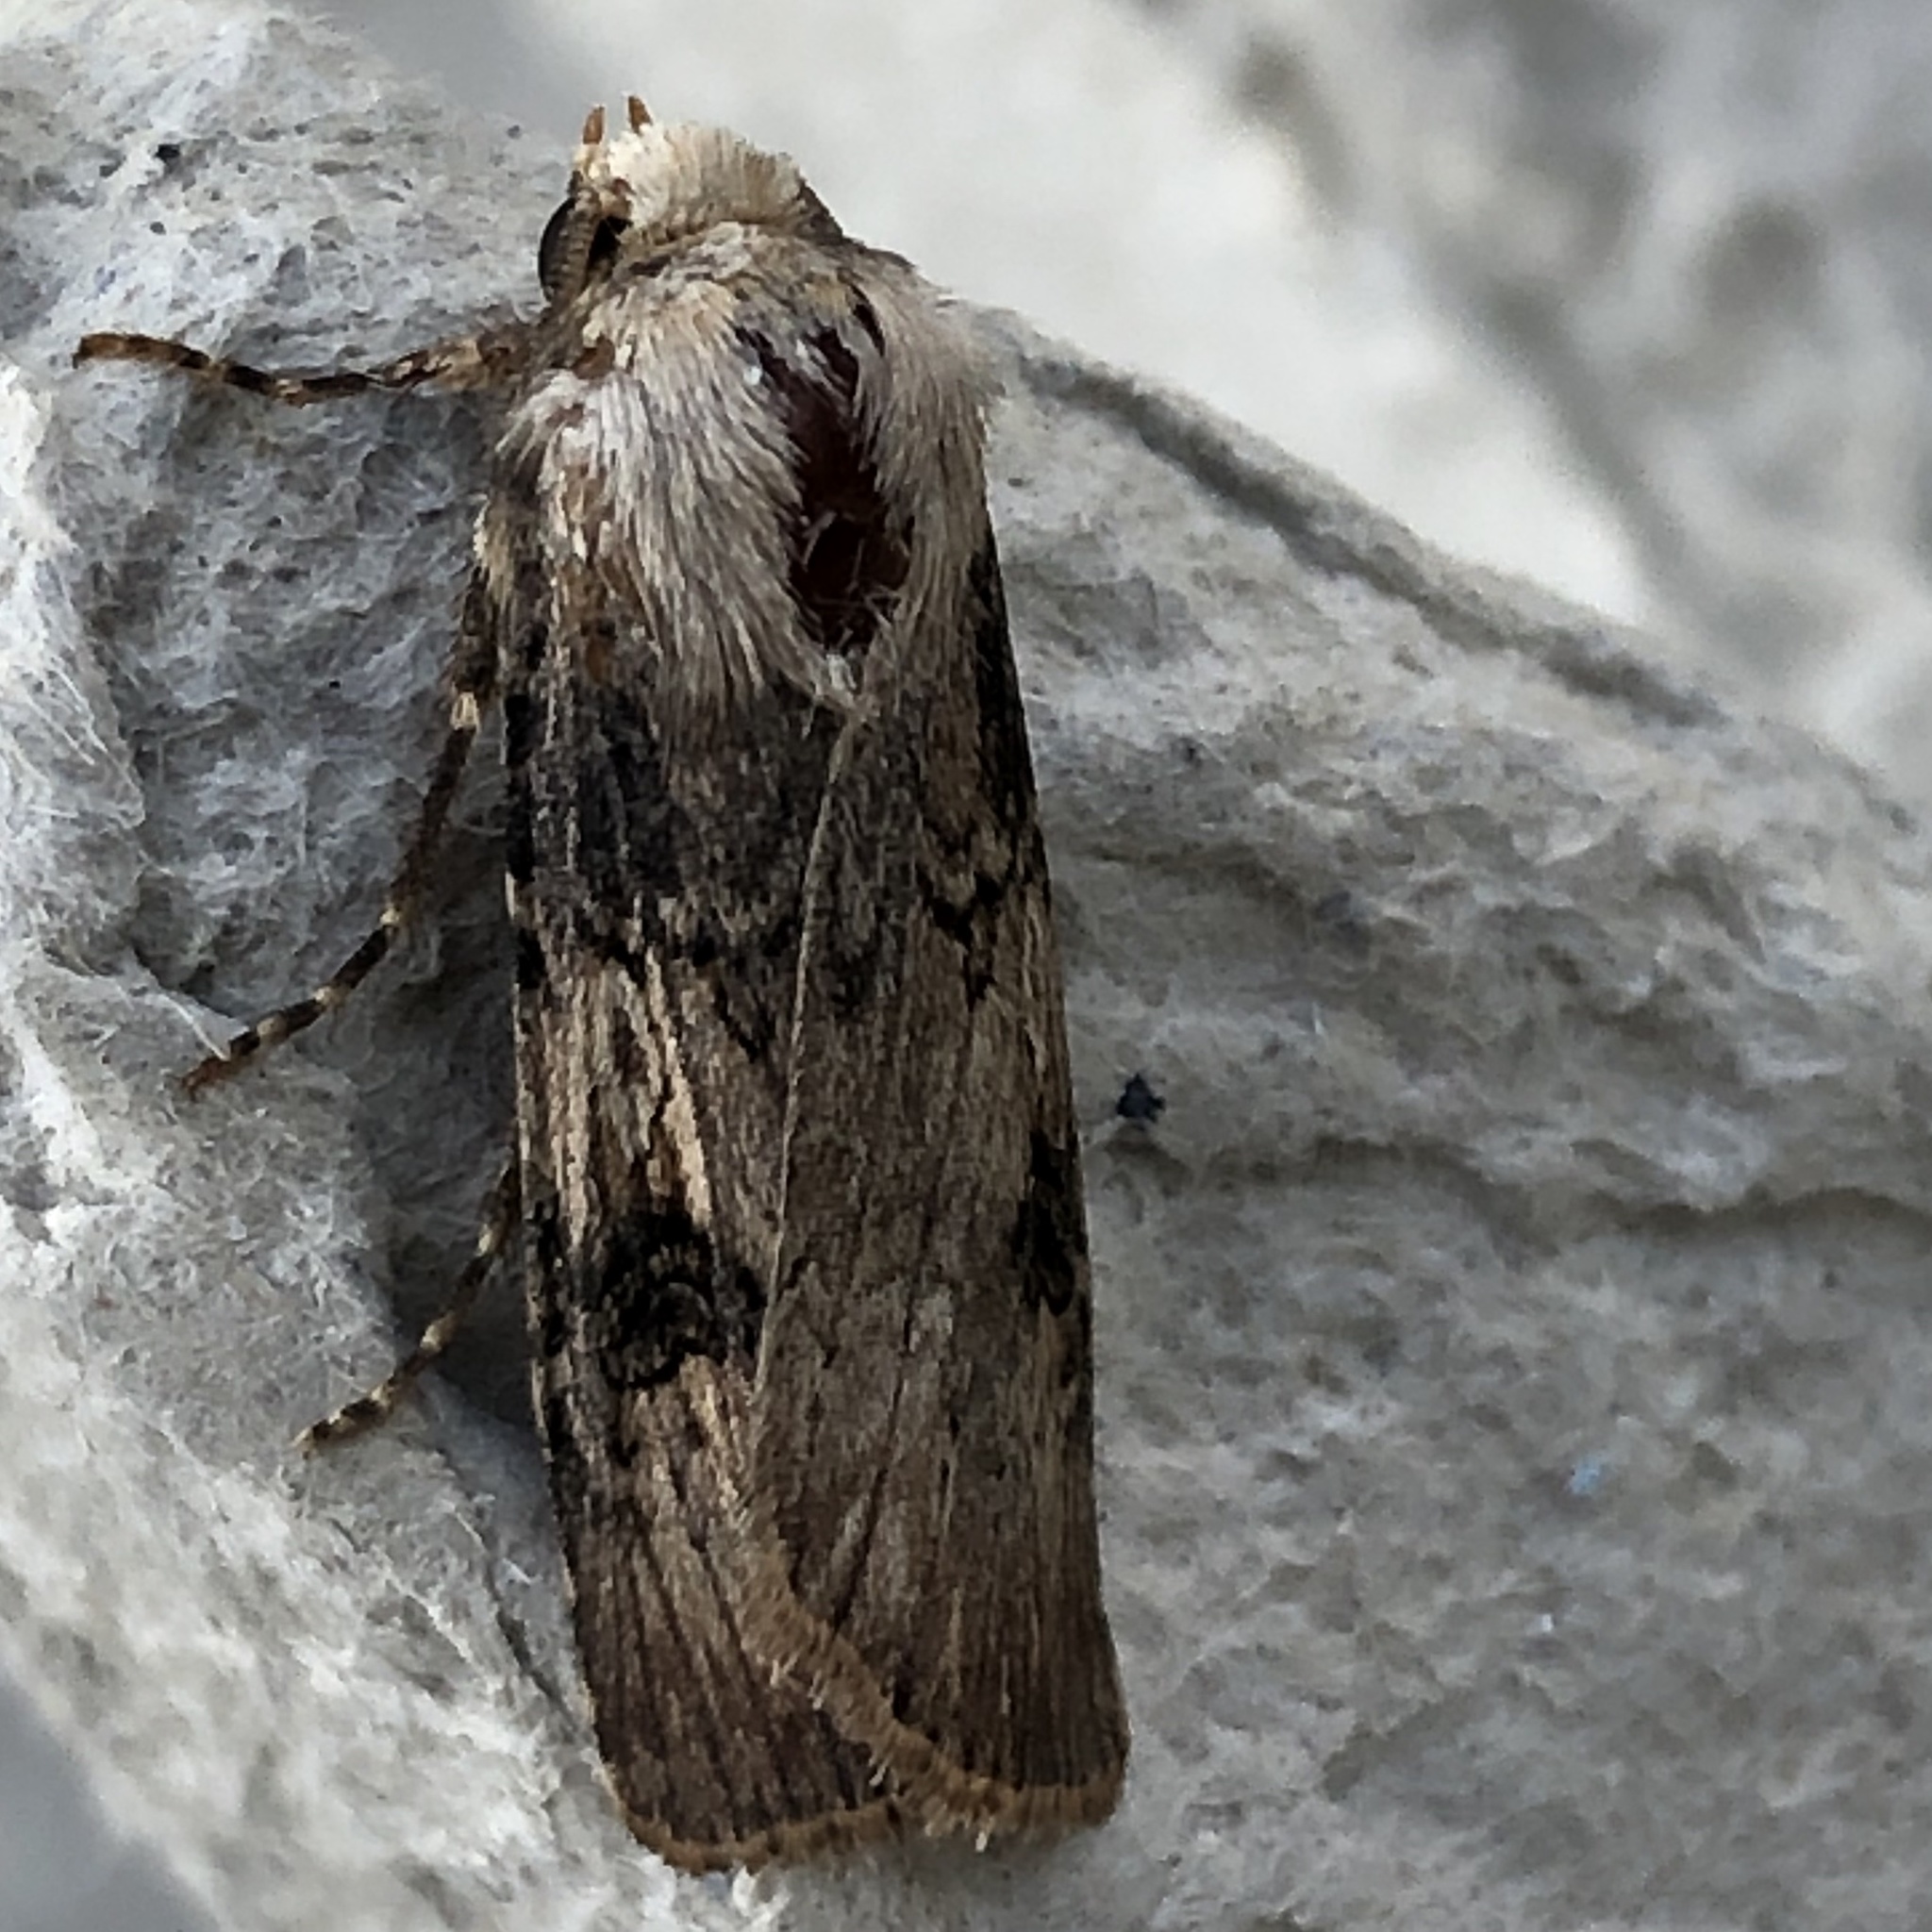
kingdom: Animalia
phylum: Arthropoda
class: Insecta
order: Lepidoptera
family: Noctuidae
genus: Agrotis
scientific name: Agrotis puta
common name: Shuttle-shaped dart
